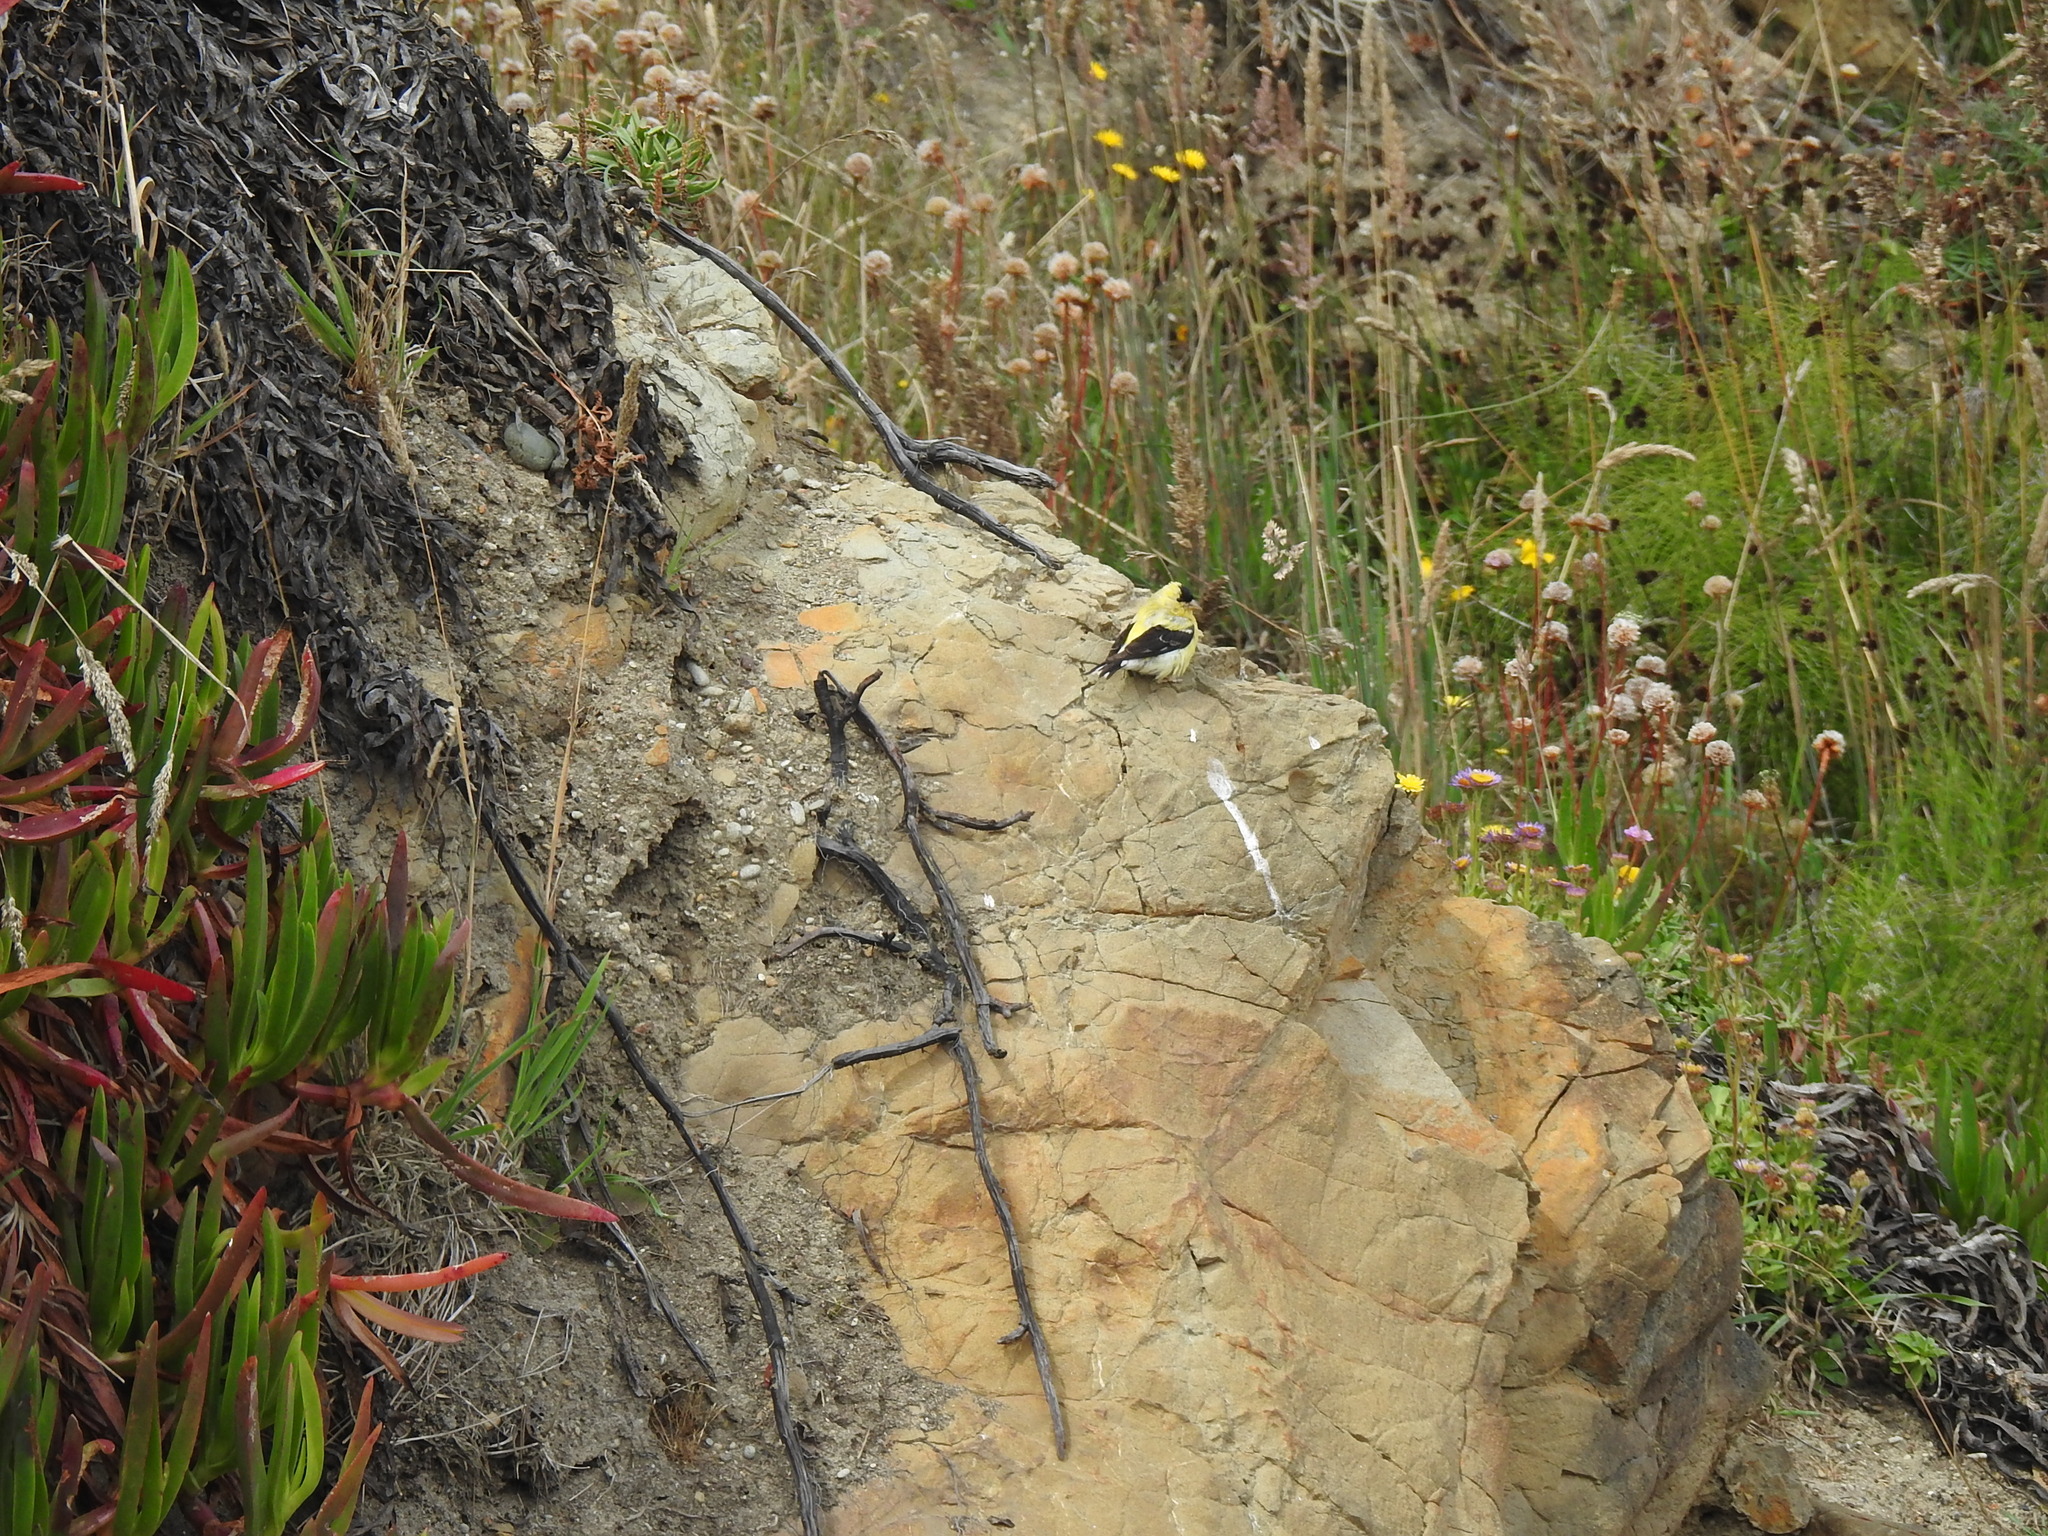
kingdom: Animalia
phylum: Chordata
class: Aves
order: Passeriformes
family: Fringillidae
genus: Spinus
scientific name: Spinus tristis
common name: American goldfinch
